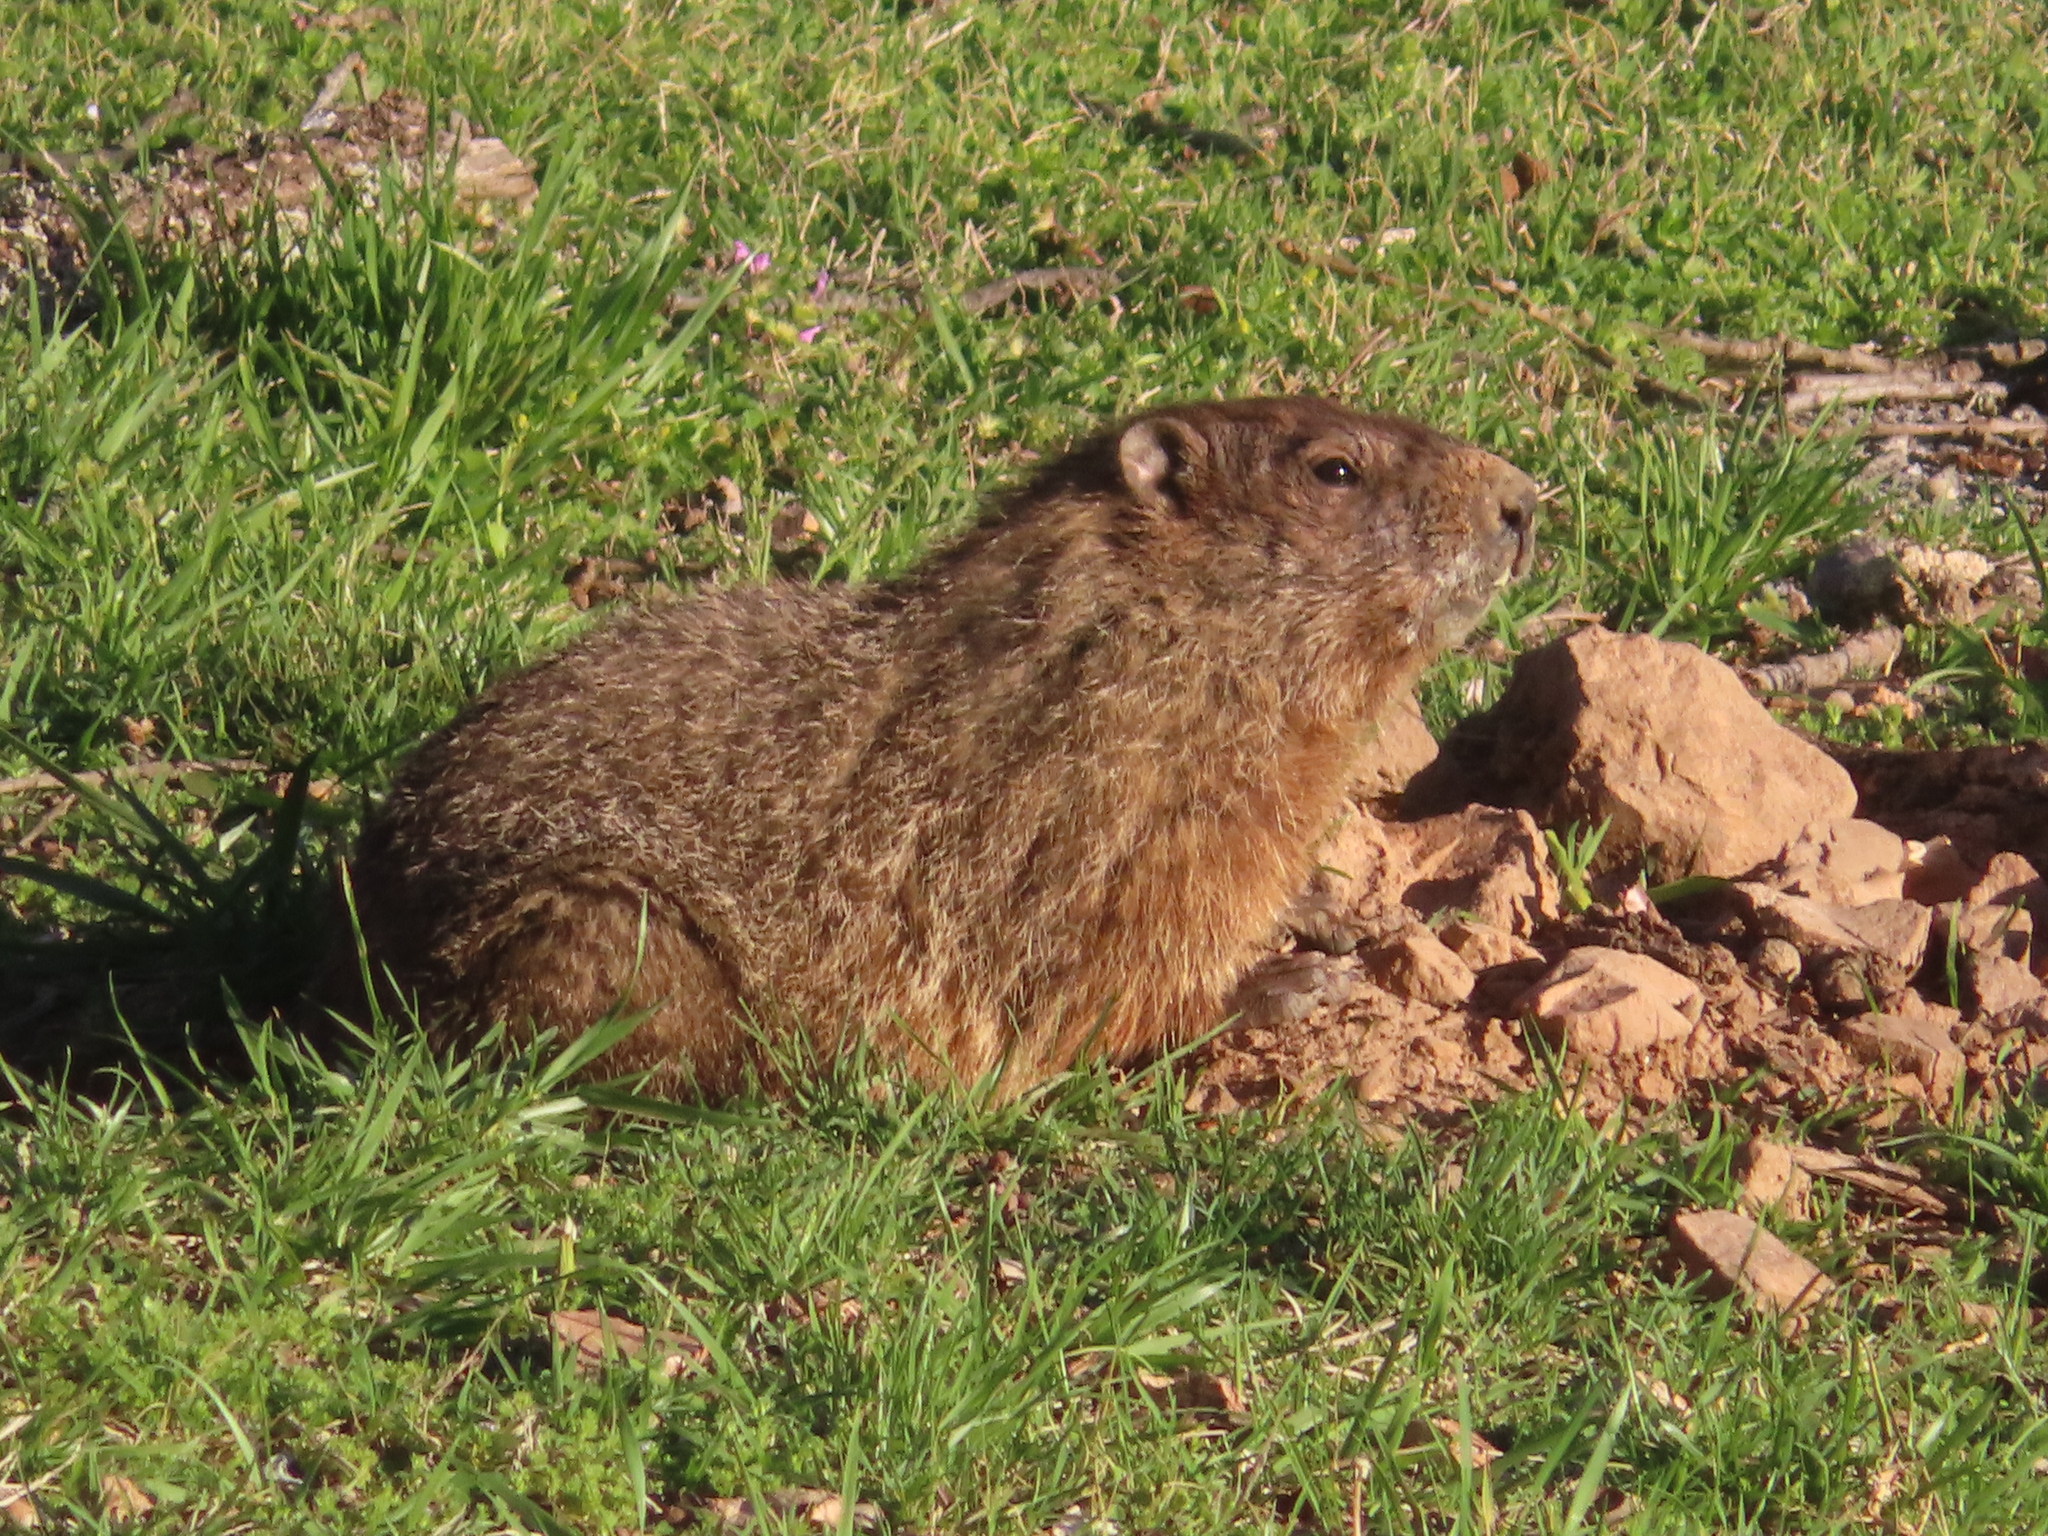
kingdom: Animalia
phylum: Chordata
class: Mammalia
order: Rodentia
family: Sciuridae
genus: Marmota
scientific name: Marmota monax
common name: Groundhog
